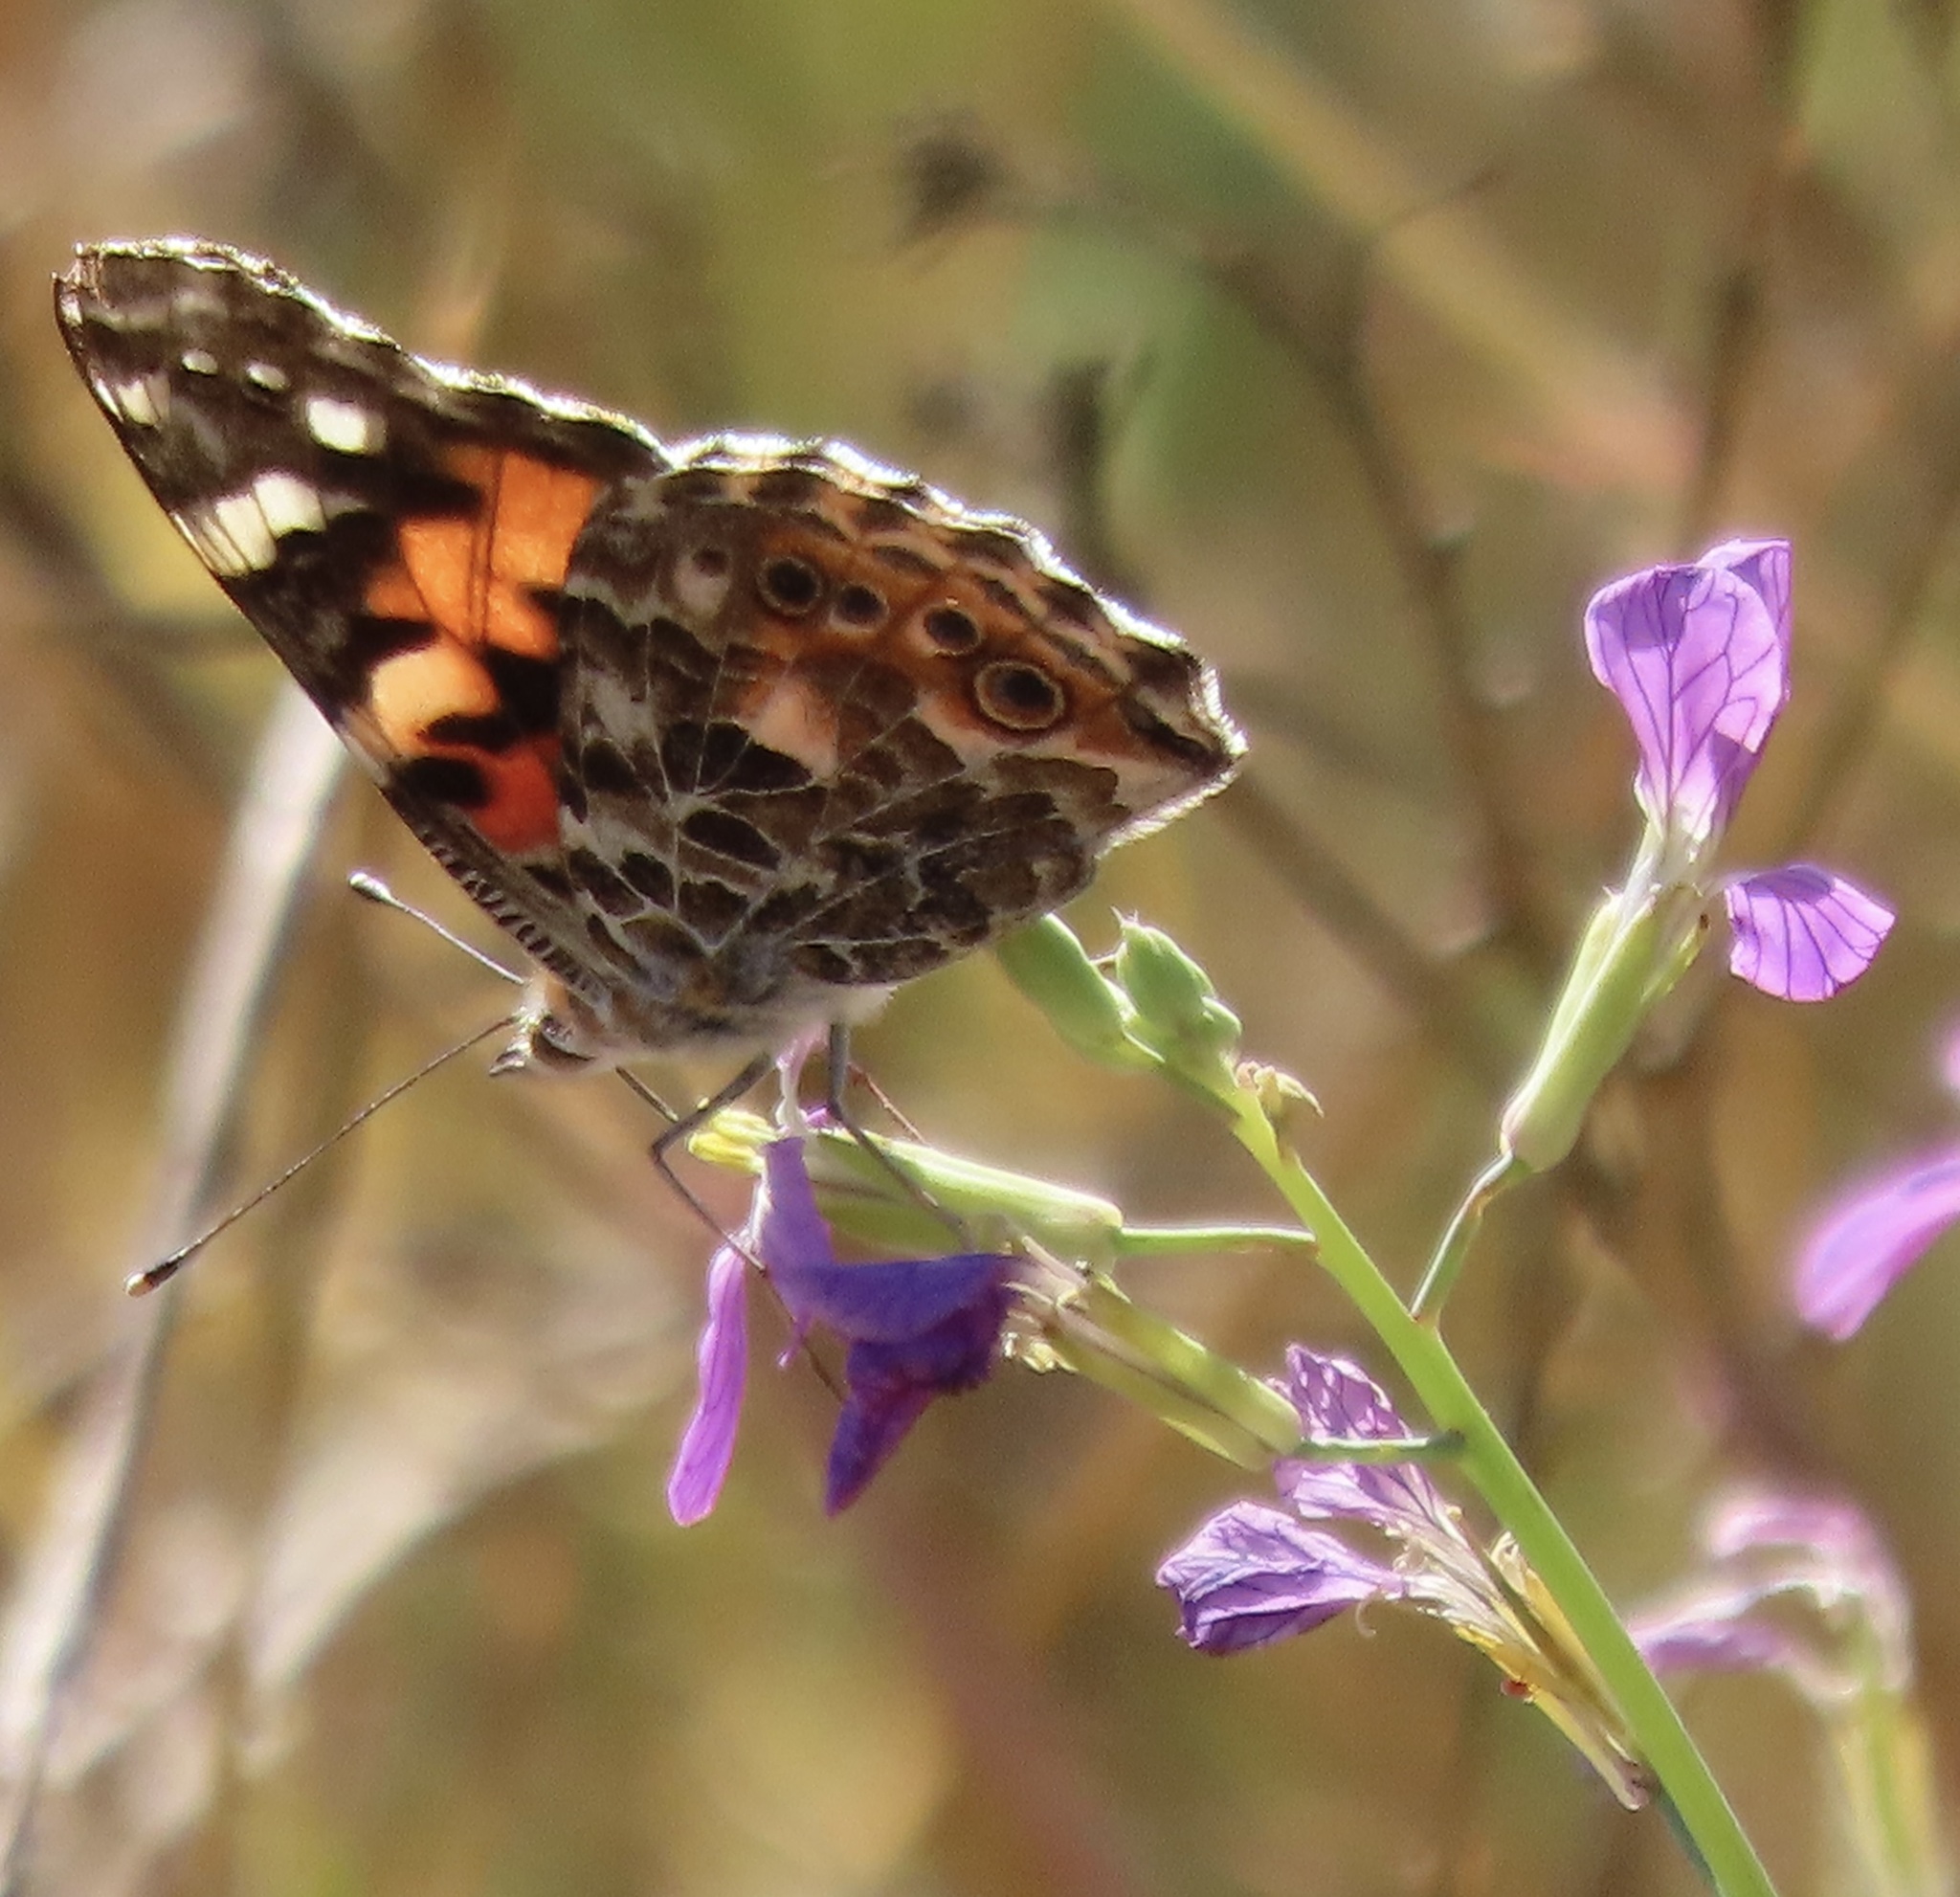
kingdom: Animalia
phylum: Arthropoda
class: Insecta
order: Lepidoptera
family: Nymphalidae
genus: Vanessa
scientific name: Vanessa cardui
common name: Painted lady
